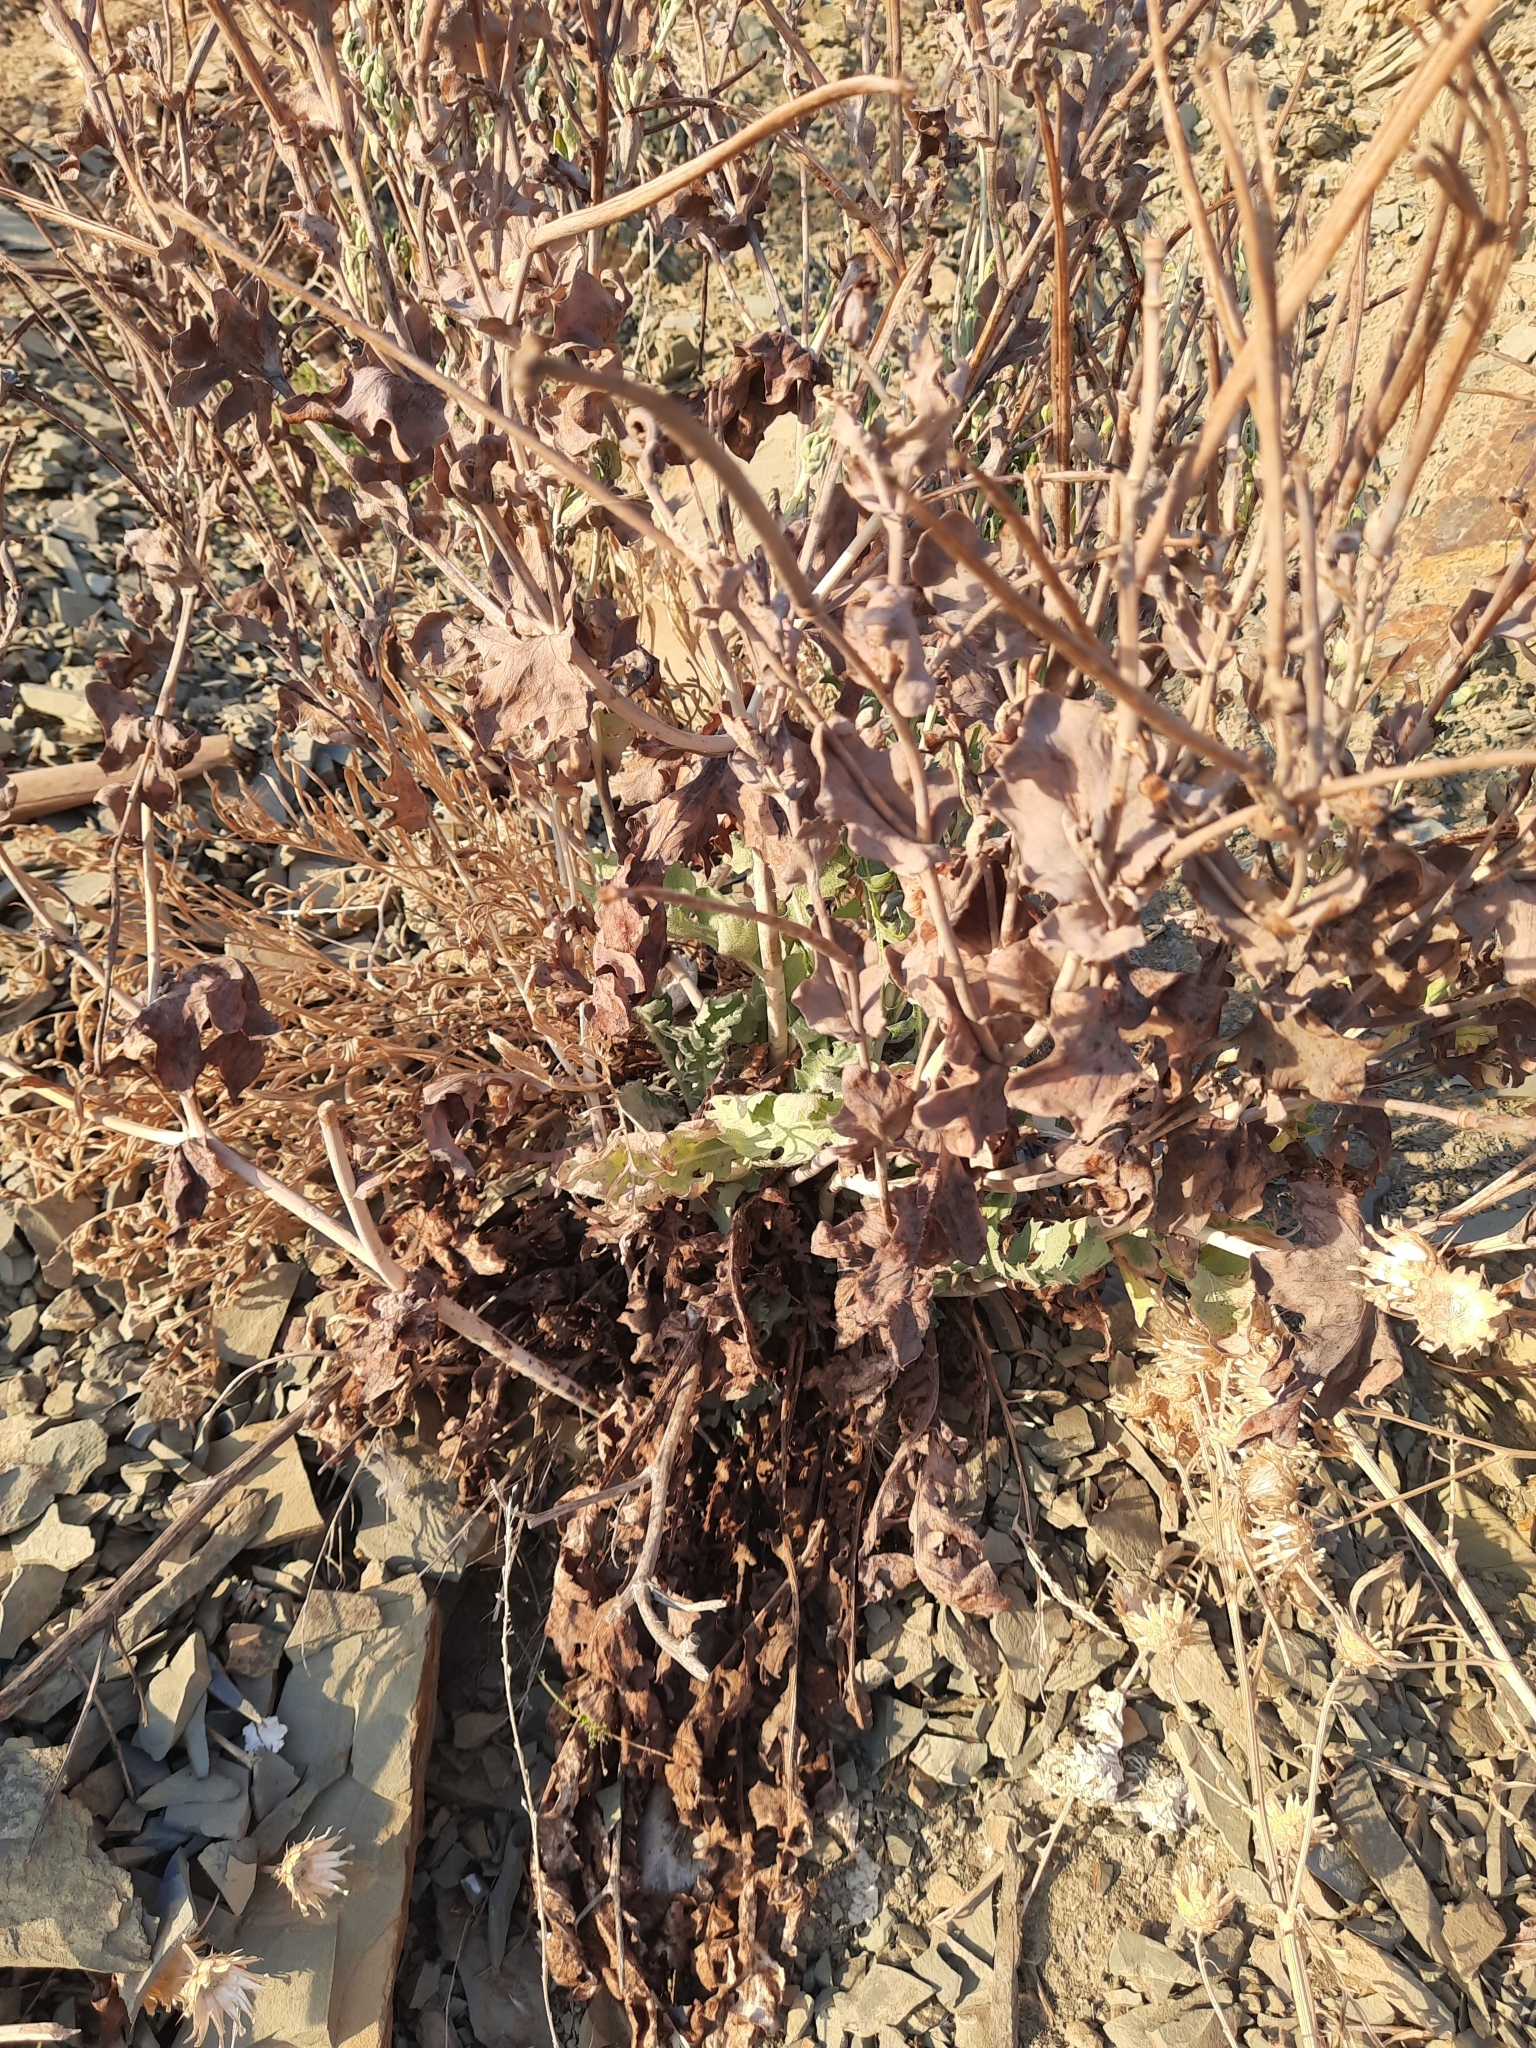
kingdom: Plantae
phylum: Tracheophyta
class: Magnoliopsida
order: Ranunculales
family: Papaveraceae
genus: Glaucium
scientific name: Glaucium flavum
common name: Yellow horned-poppy
